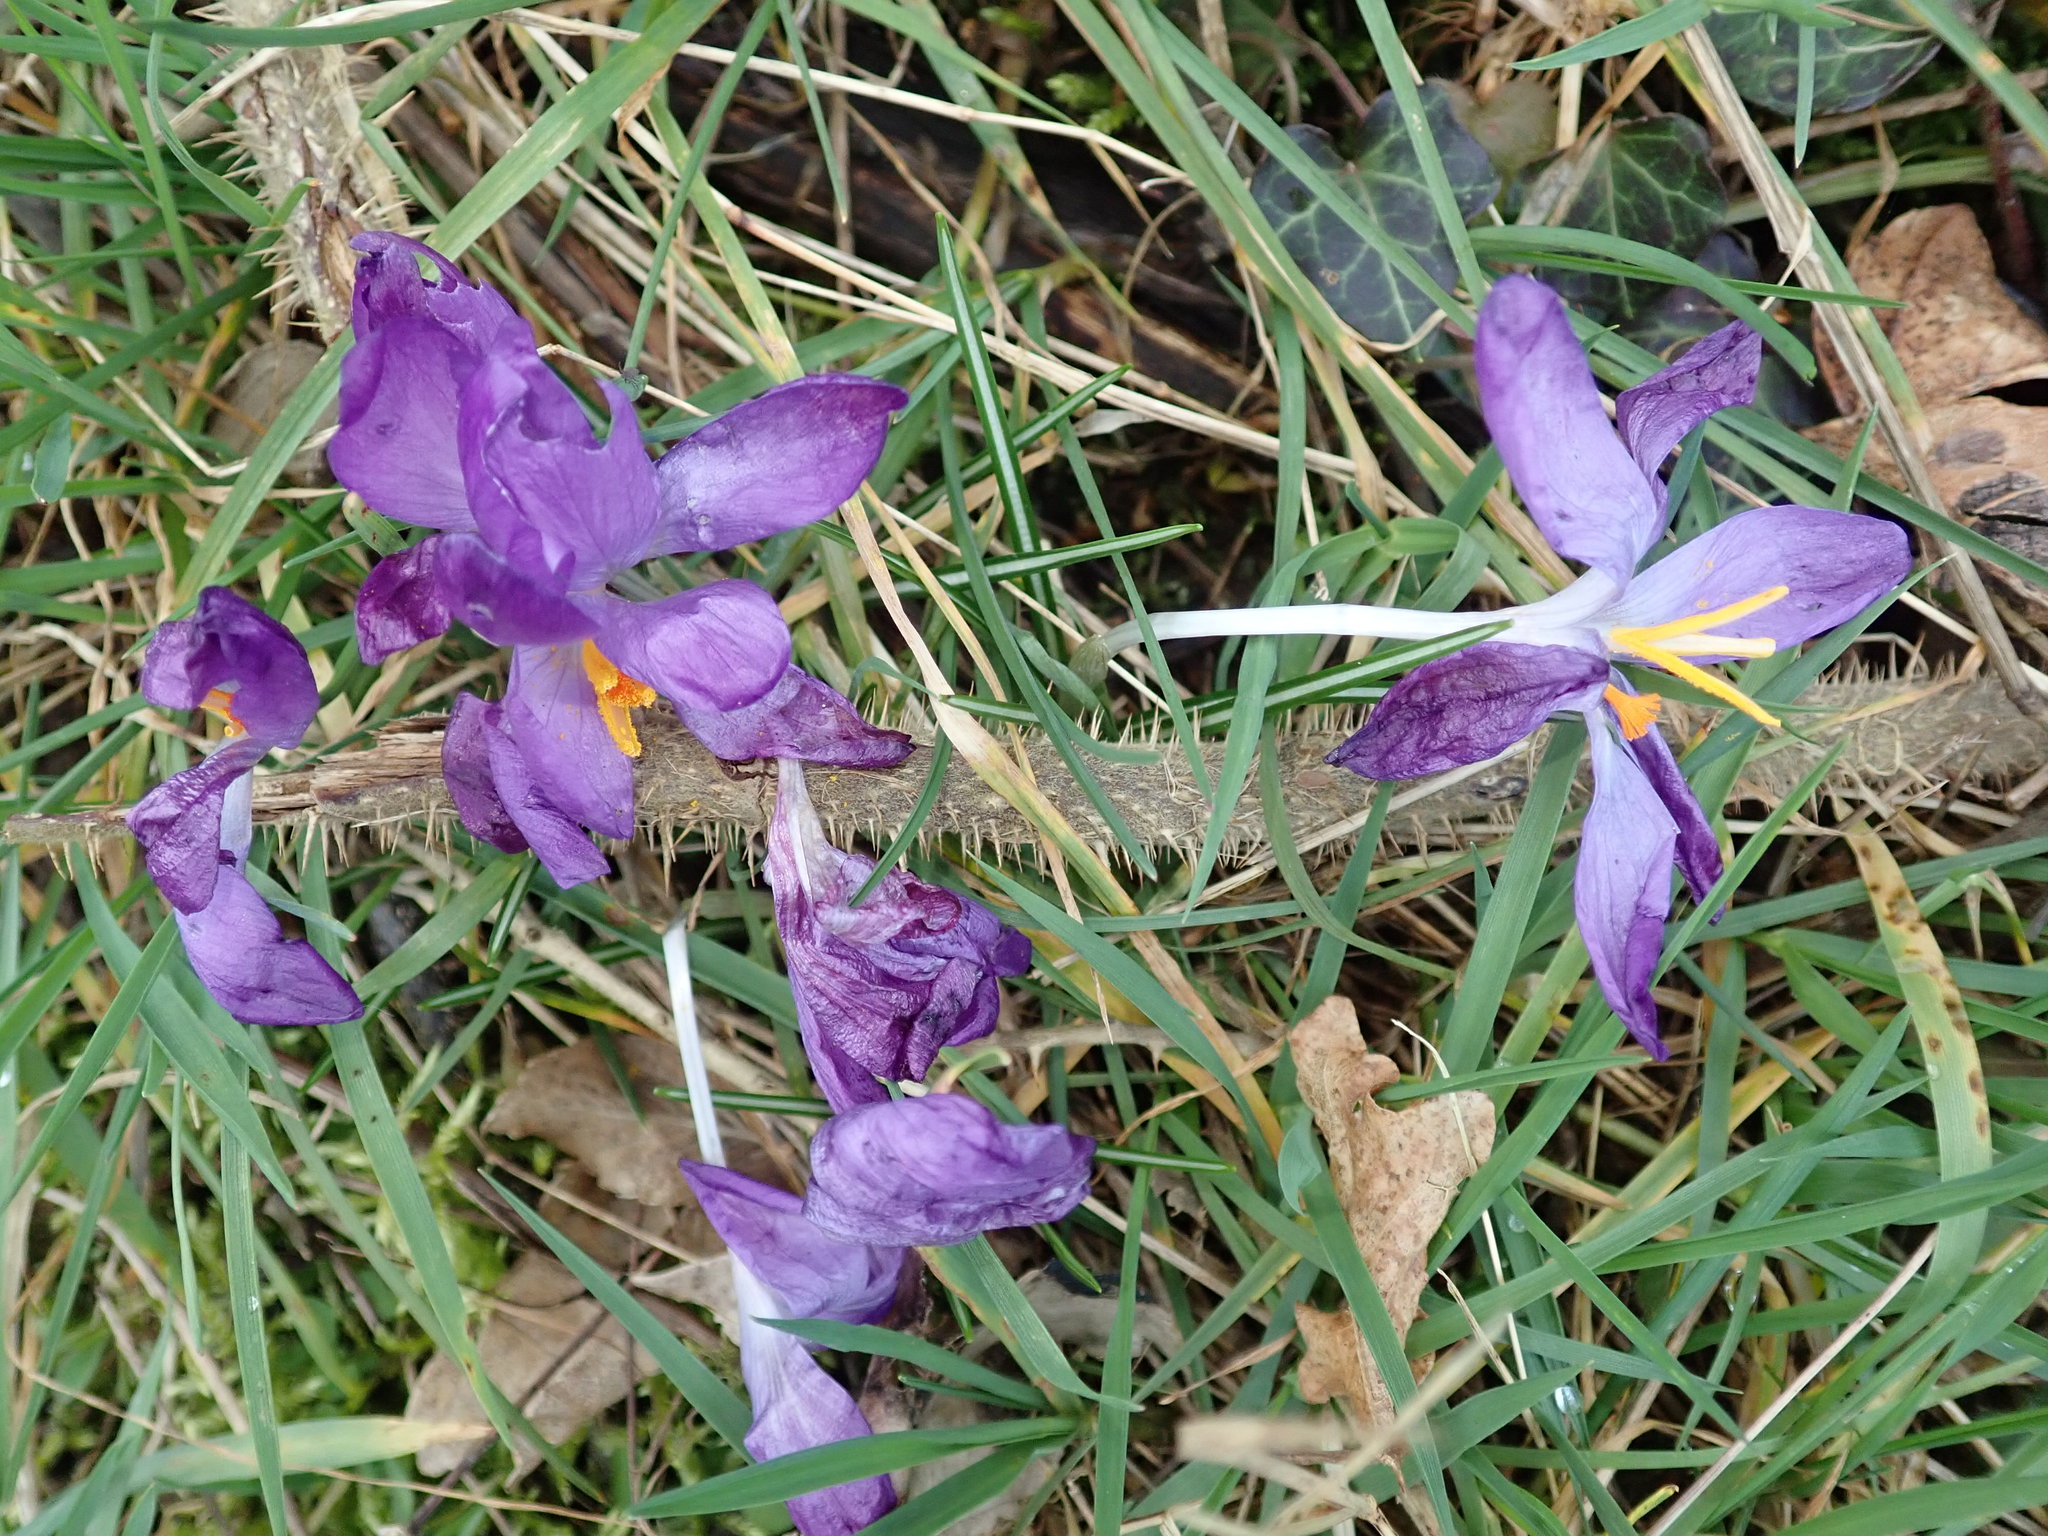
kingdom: Plantae
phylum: Tracheophyta
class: Liliopsida
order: Asparagales
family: Iridaceae
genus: Crocus
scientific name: Crocus tommasinianus
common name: Early crocus
